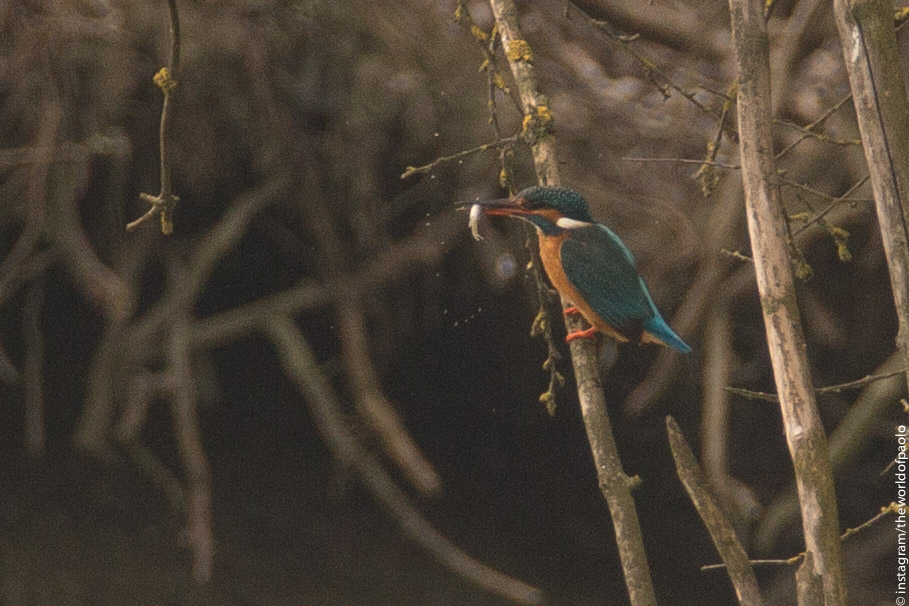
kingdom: Animalia
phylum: Chordata
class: Aves
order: Coraciiformes
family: Alcedinidae
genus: Alcedo
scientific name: Alcedo atthis
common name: Common kingfisher
